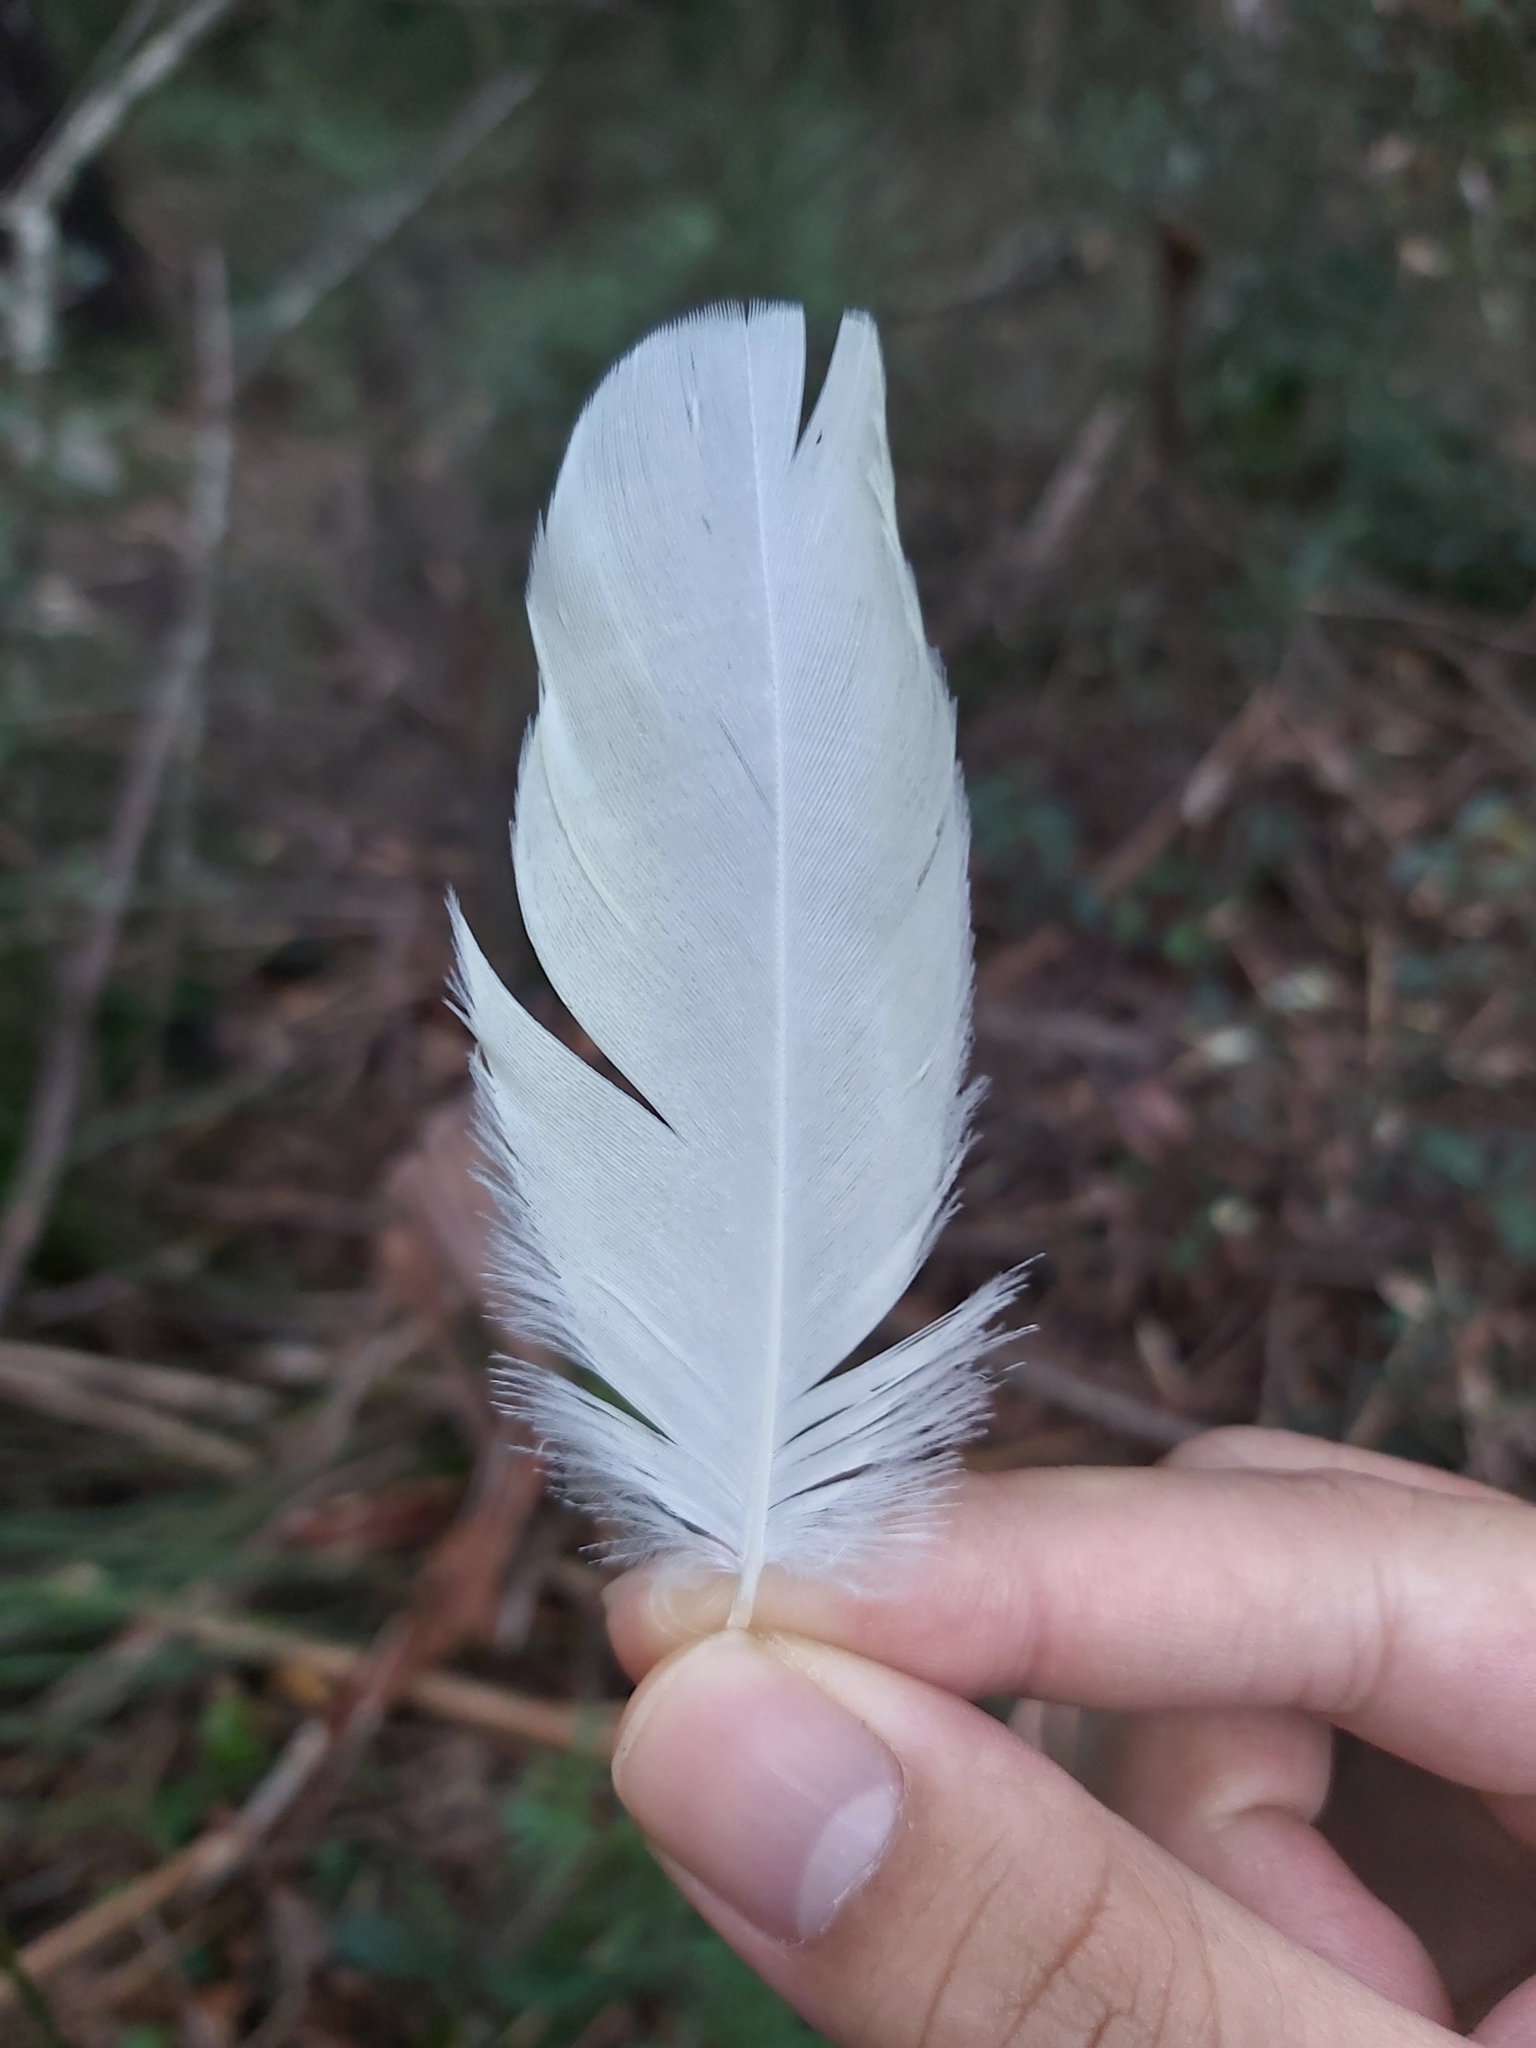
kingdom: Animalia
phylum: Chordata
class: Aves
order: Psittaciformes
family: Psittacidae
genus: Cacatua
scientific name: Cacatua galerita
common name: Sulphur-crested cockatoo
